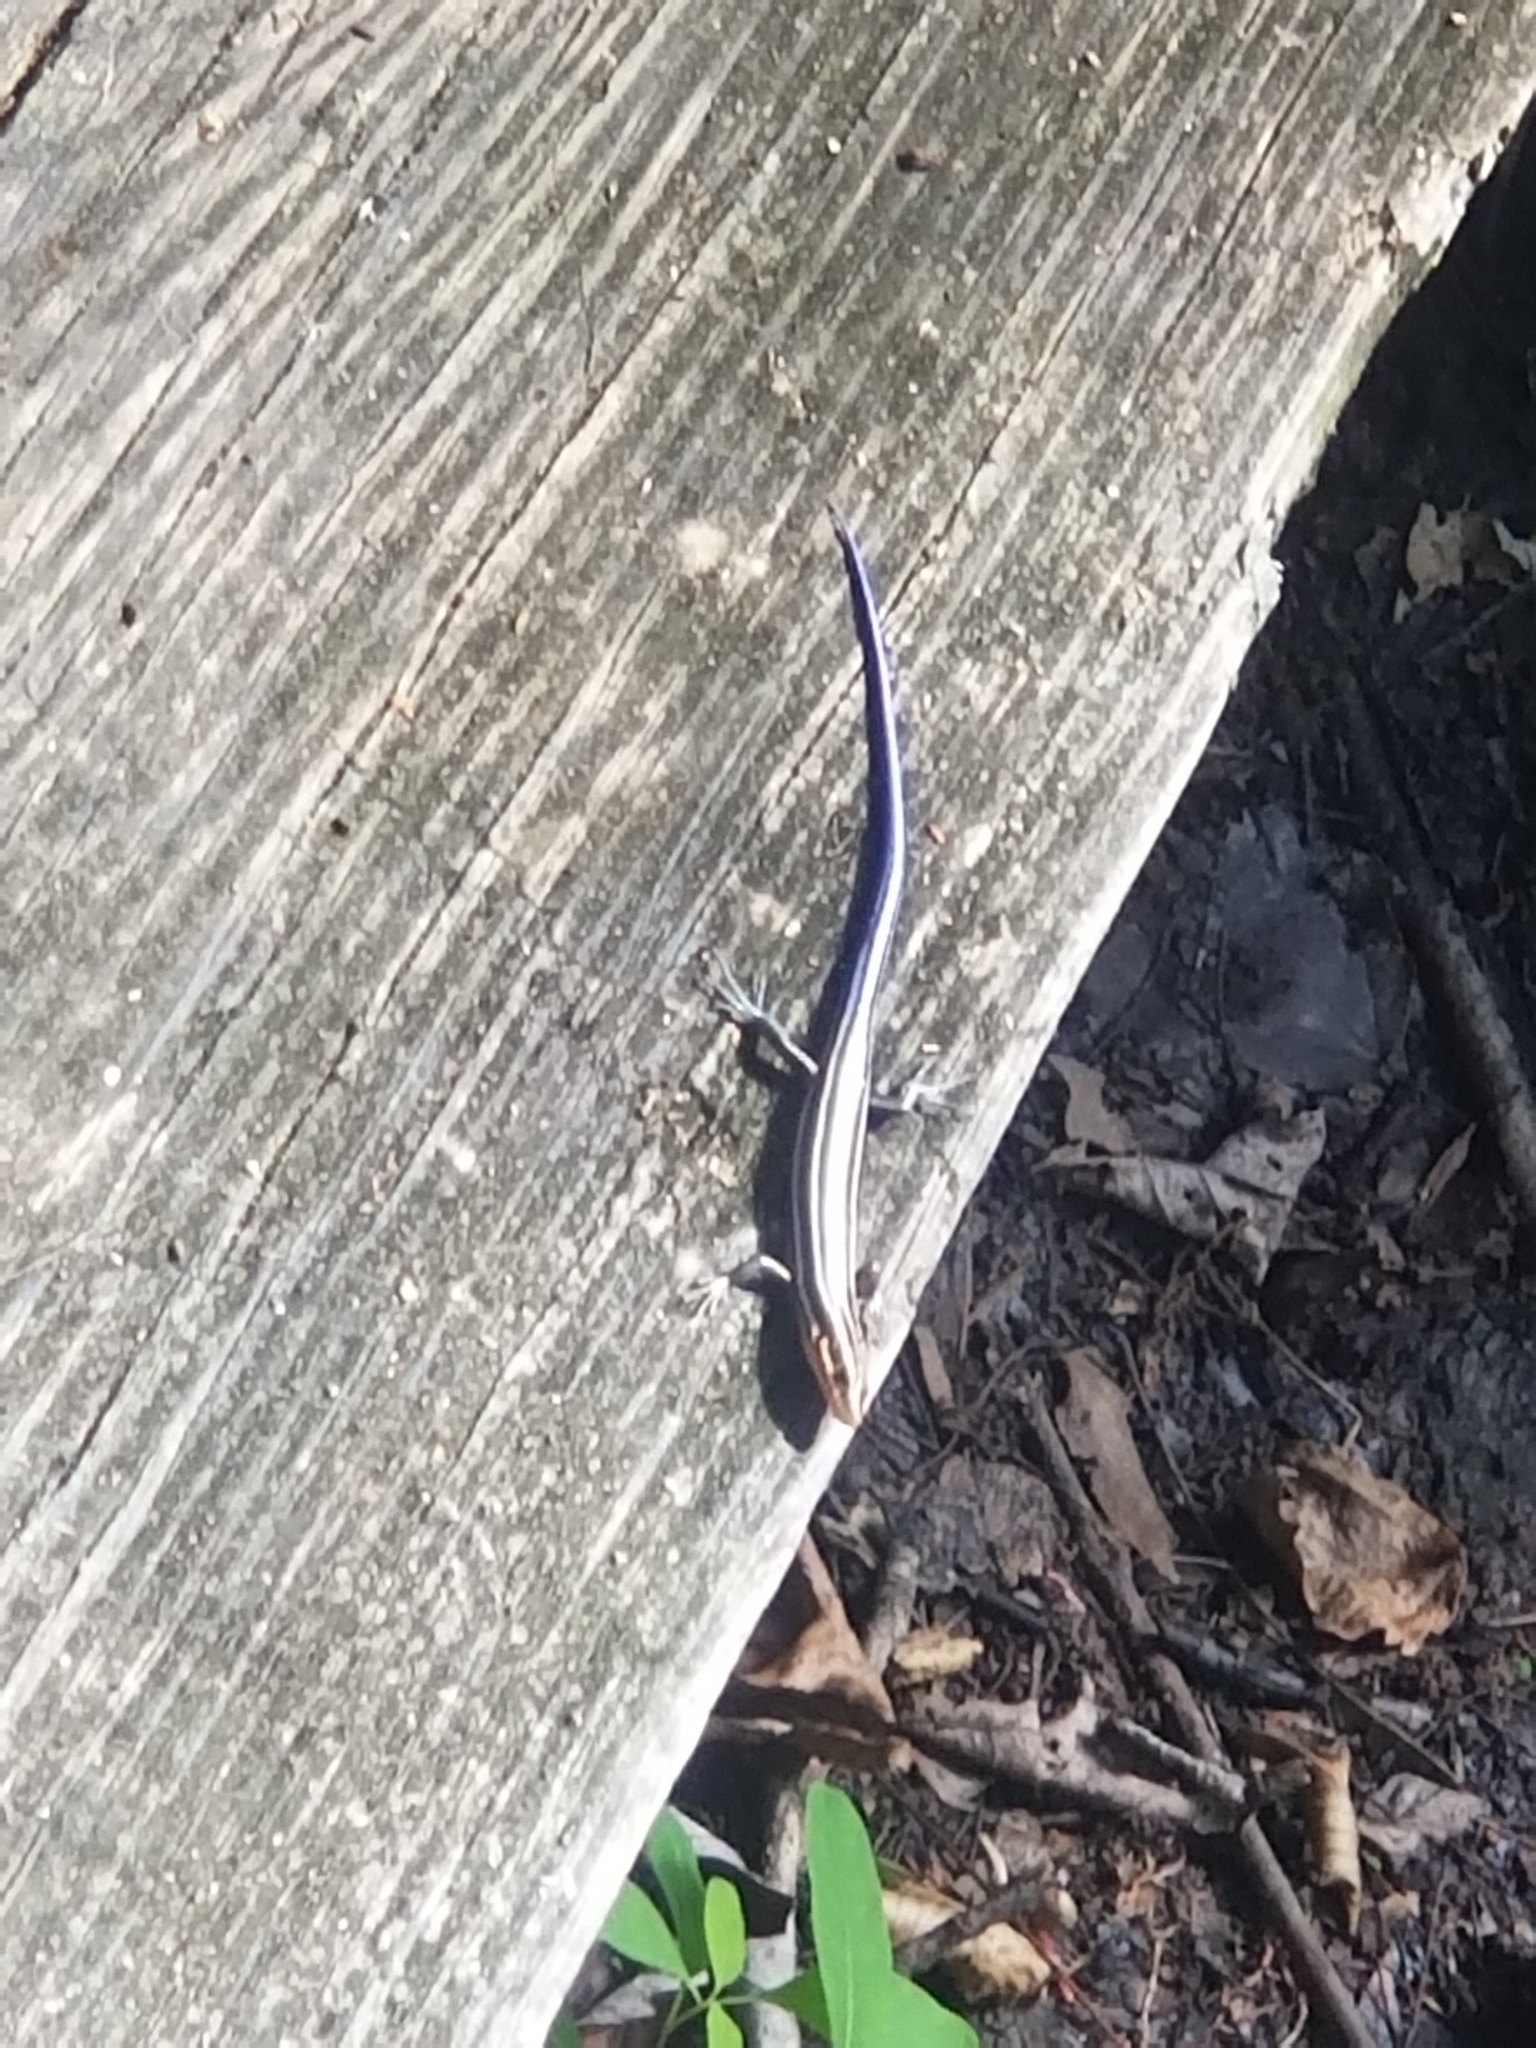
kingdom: Animalia
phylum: Chordata
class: Squamata
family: Scincidae
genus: Plestiodon
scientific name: Plestiodon fasciatus
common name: Five-lined skink
